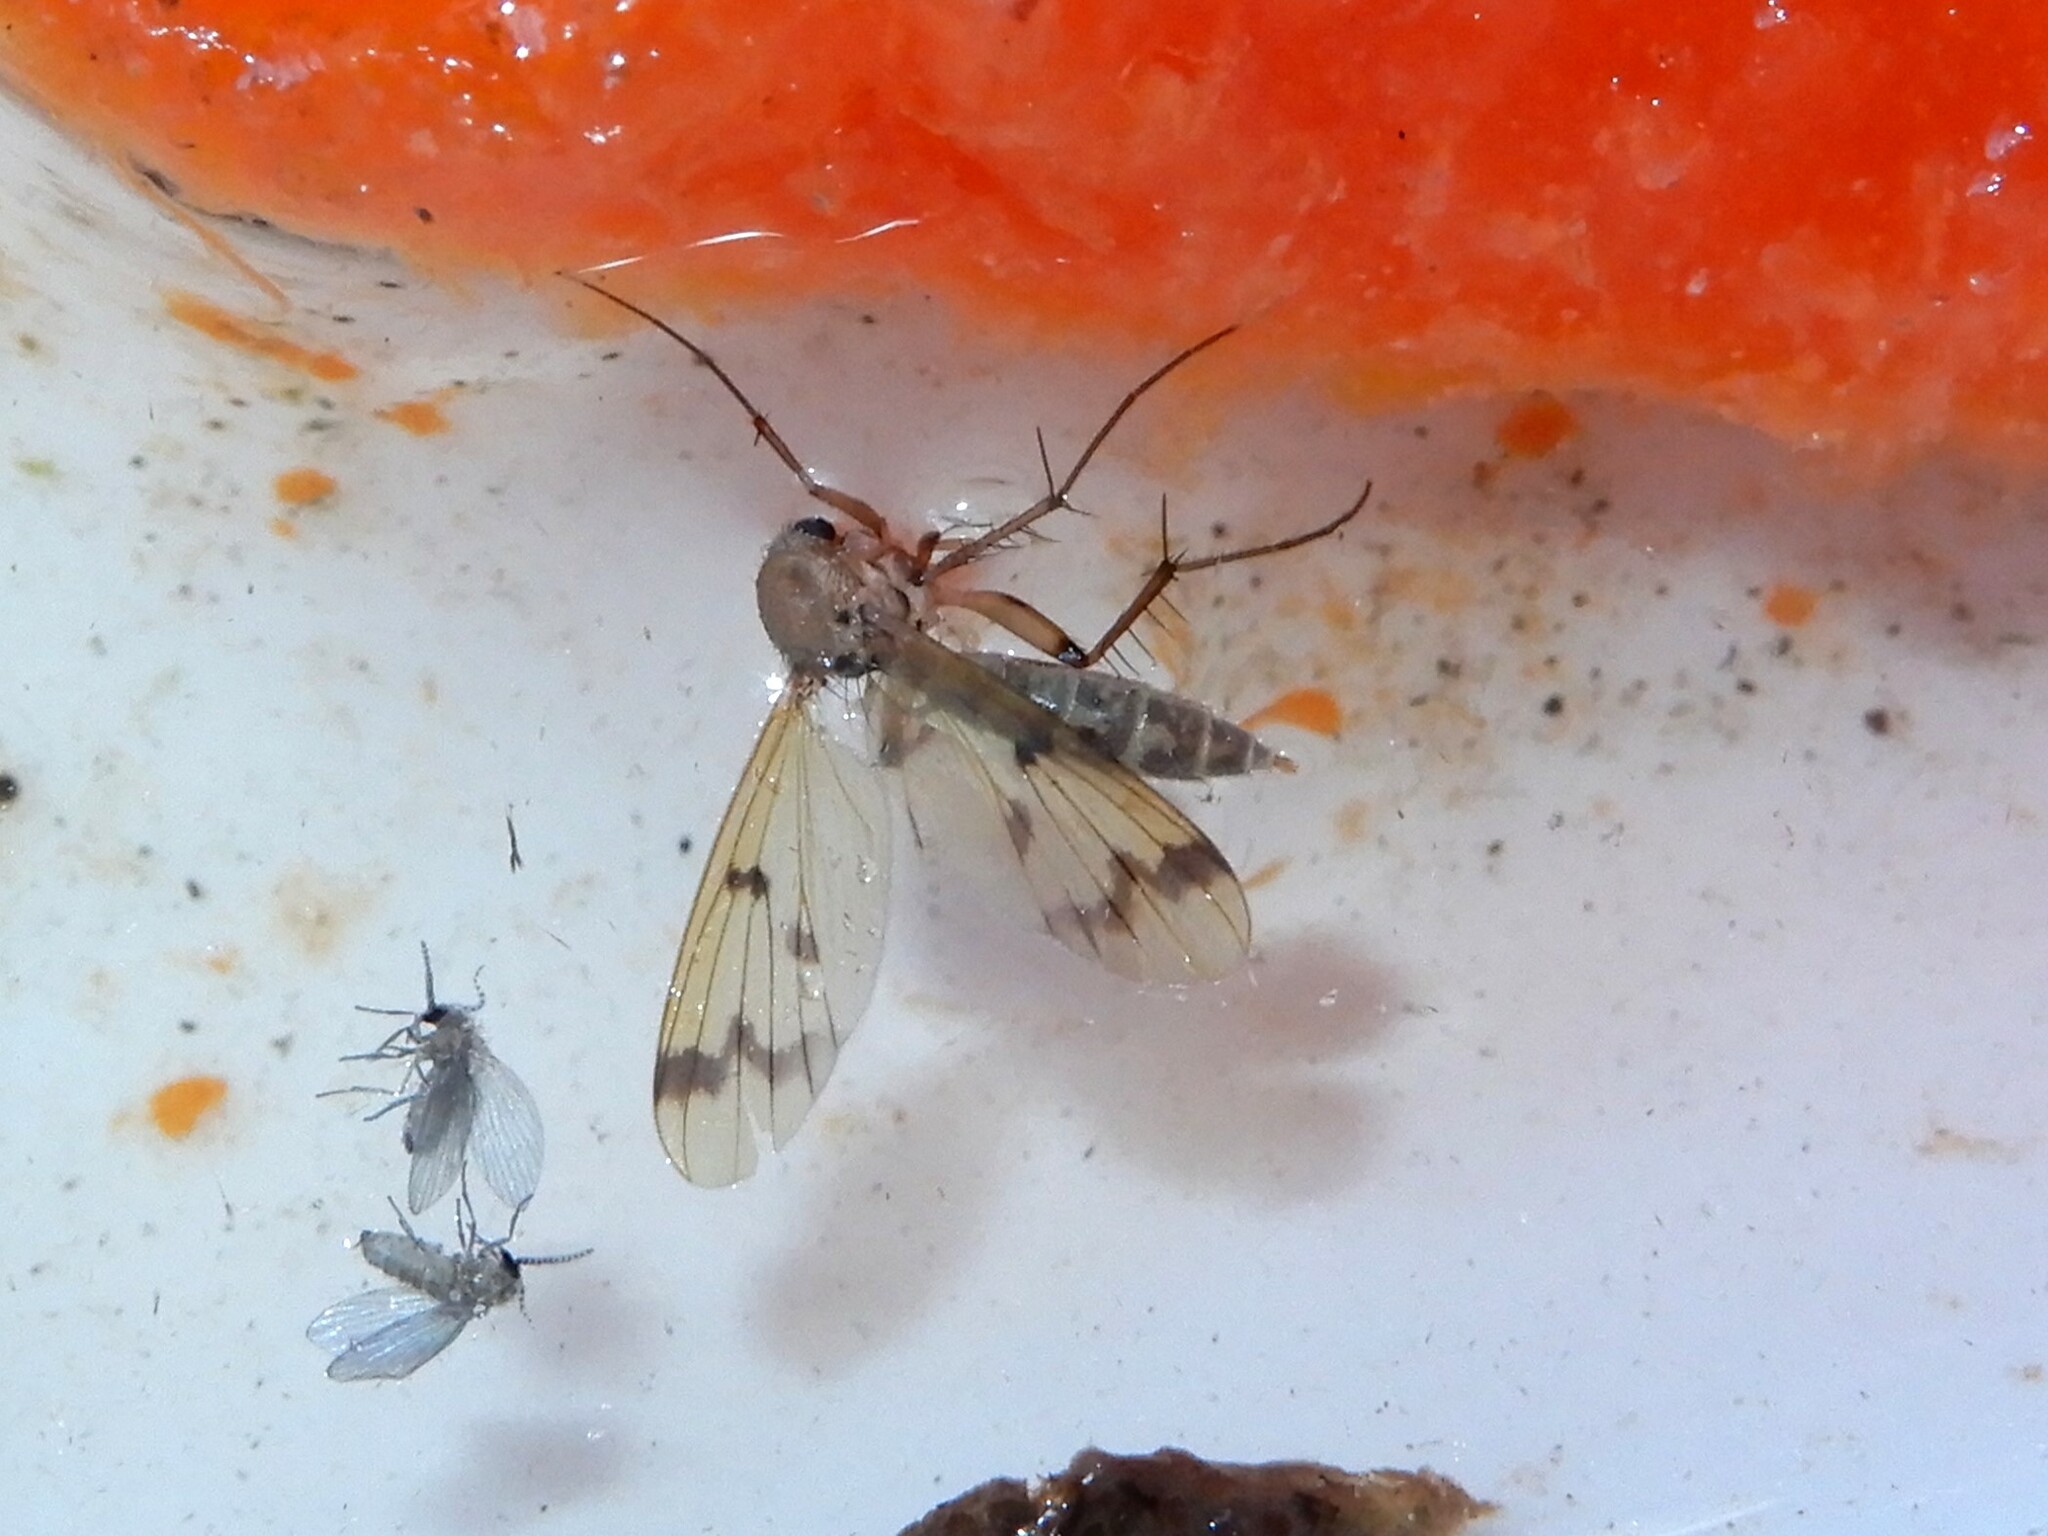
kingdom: Animalia
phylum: Arthropoda
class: Insecta
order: Diptera
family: Mycetophilidae
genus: Mycetophila
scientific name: Mycetophila elegans
